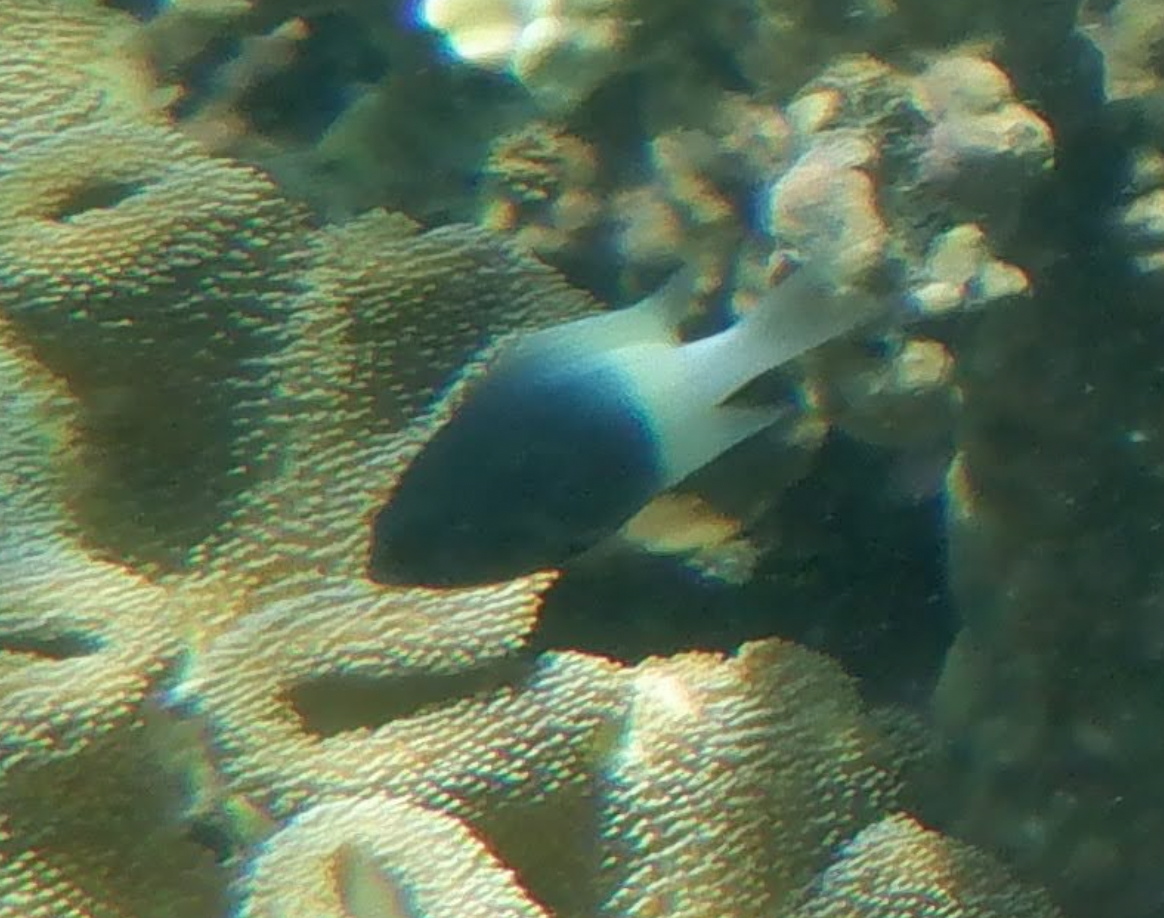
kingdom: Animalia
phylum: Chordata
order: Perciformes
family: Pomacentridae
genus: Chromis
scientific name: Chromis fieldi
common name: Chocolatedip chromis
